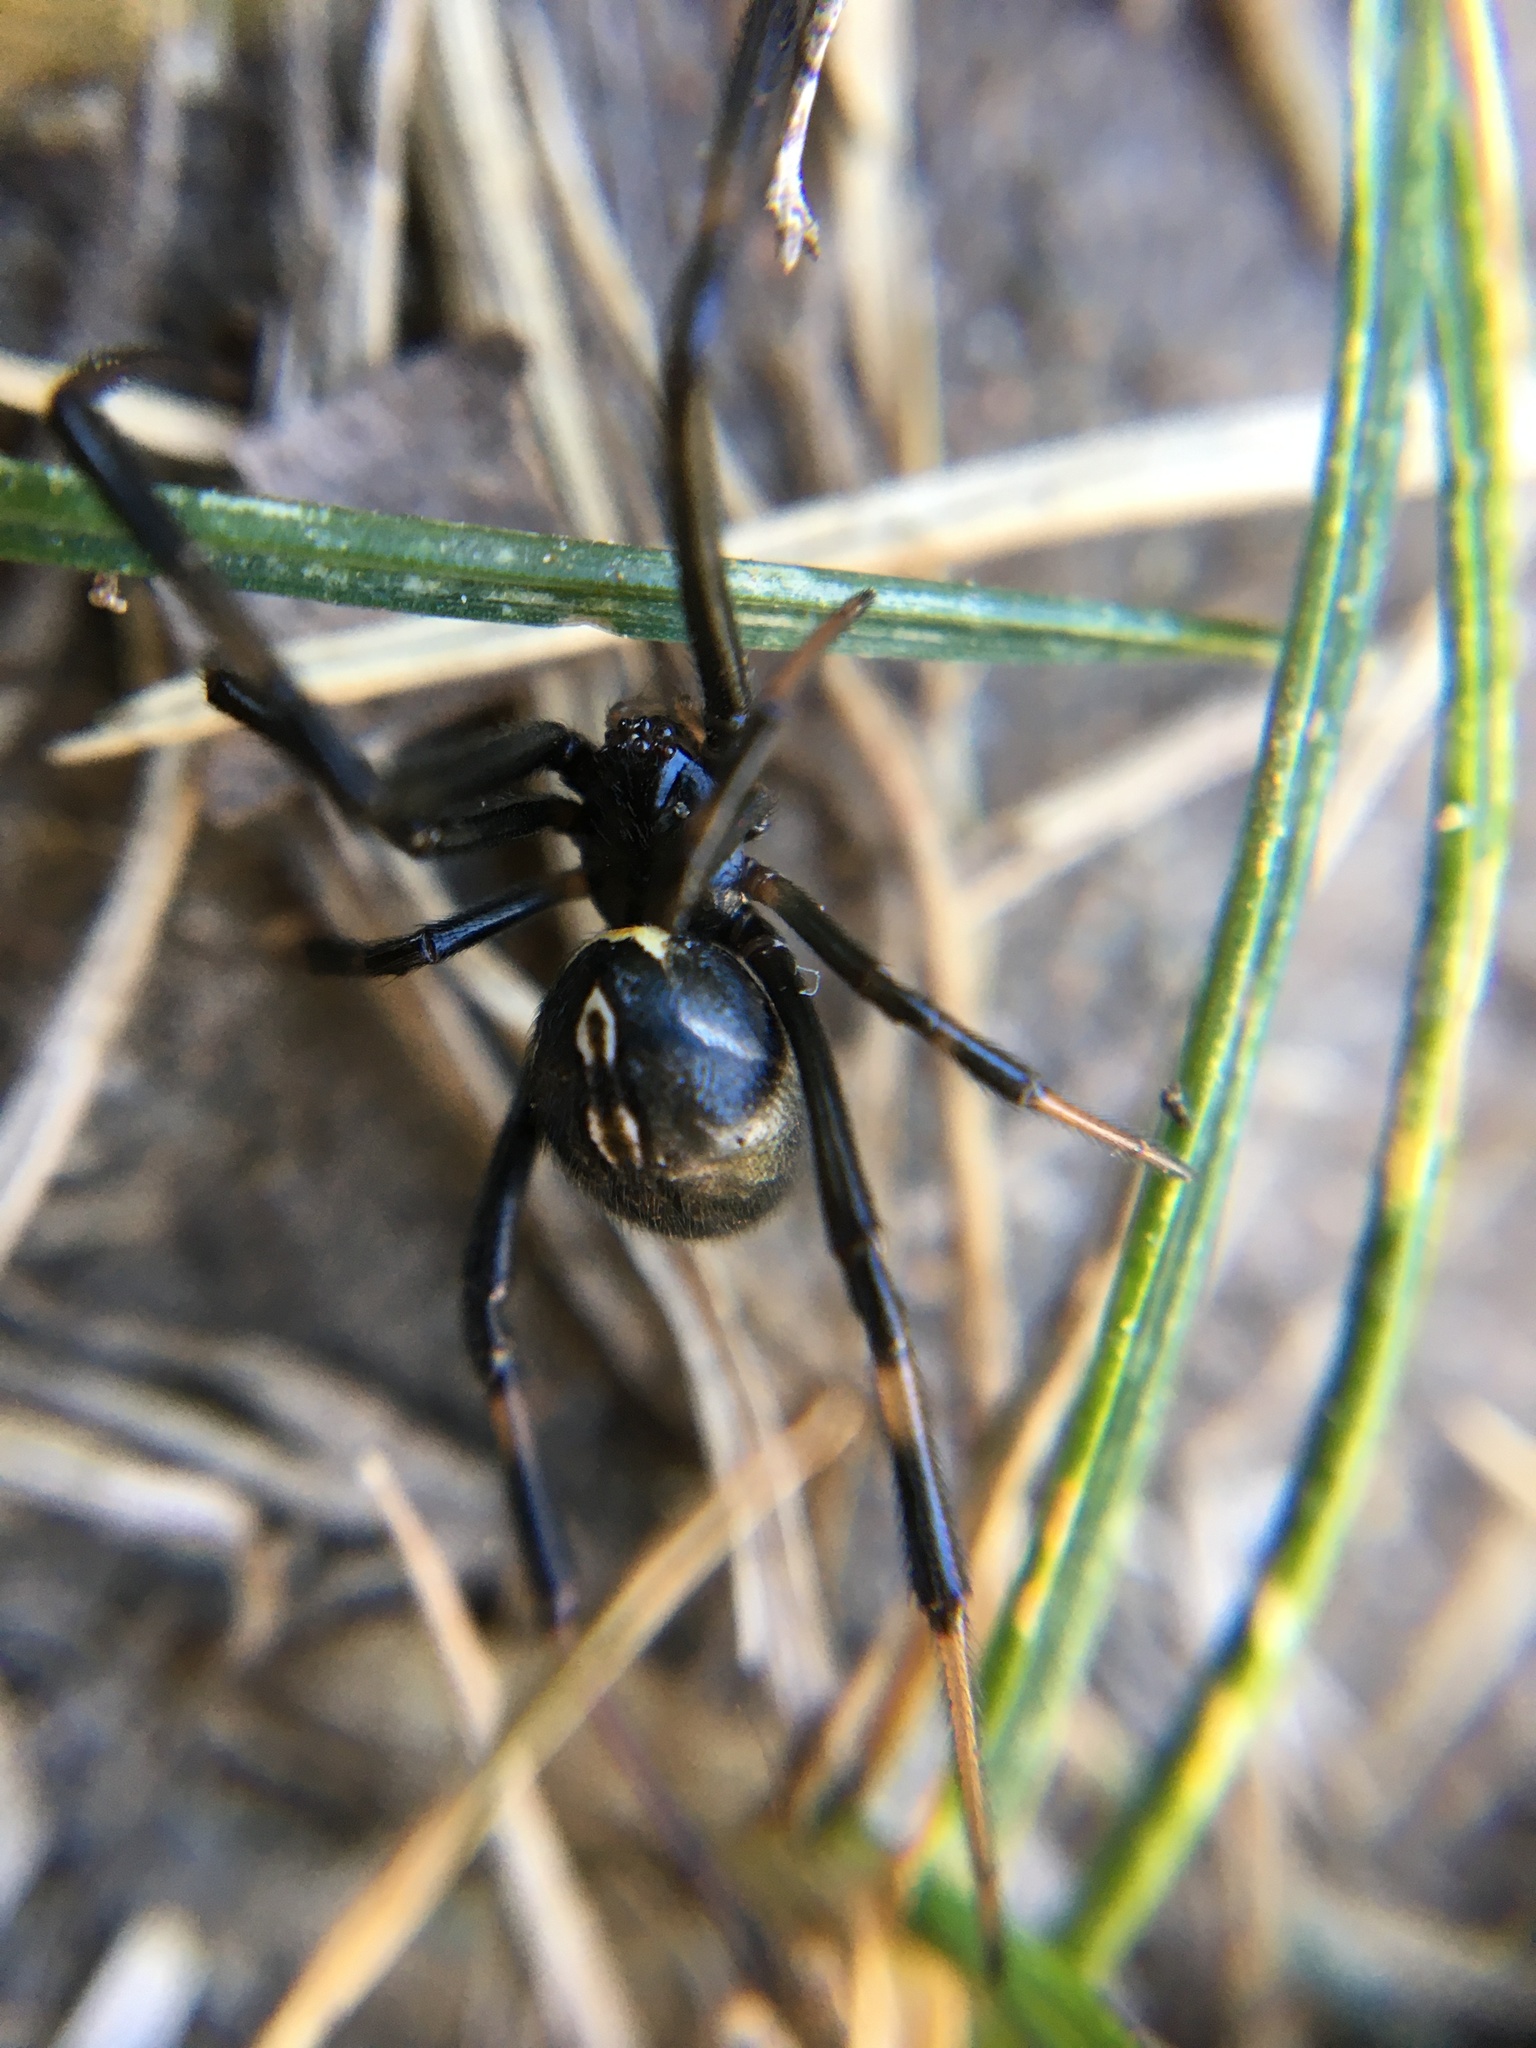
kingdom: Animalia
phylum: Arthropoda
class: Arachnida
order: Araneae
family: Theridiidae
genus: Latrodectus
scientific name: Latrodectus hesperus
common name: Western black widow
